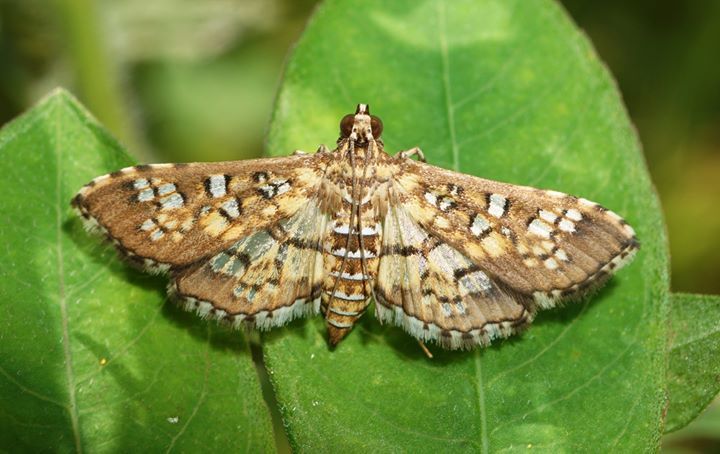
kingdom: Animalia
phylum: Arthropoda
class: Insecta
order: Lepidoptera
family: Crambidae
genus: Samea
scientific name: Samea ecclesialis
